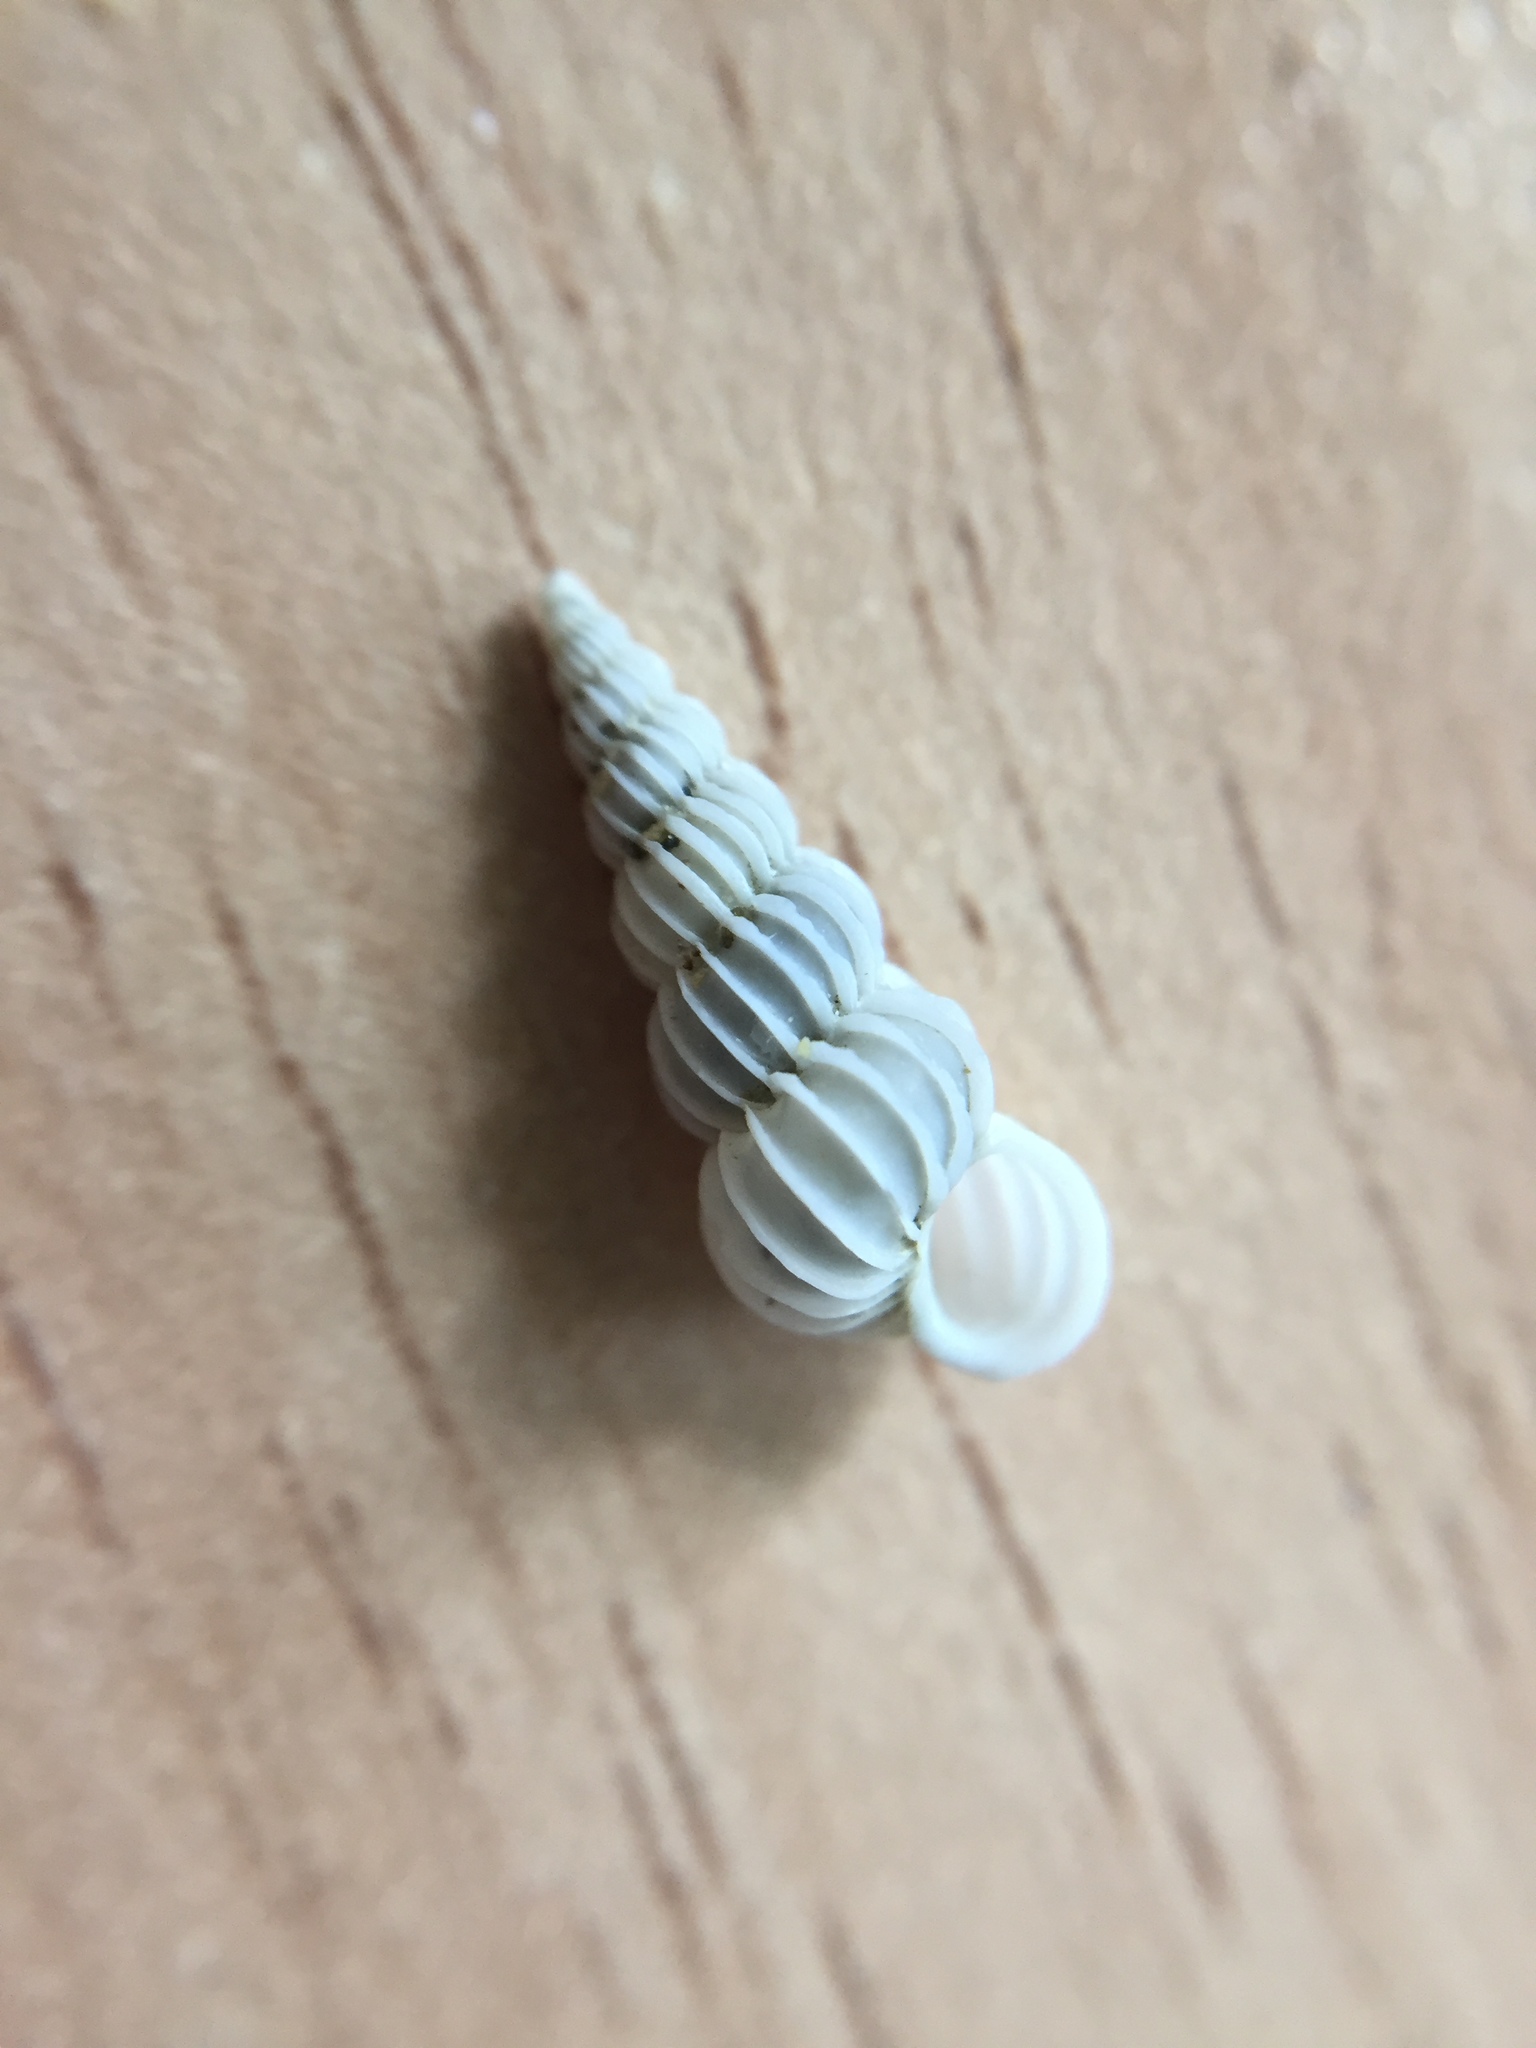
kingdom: Animalia
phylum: Mollusca
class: Gastropoda
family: Epitoniidae
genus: Epitonium
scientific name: Epitonium jukesianum
